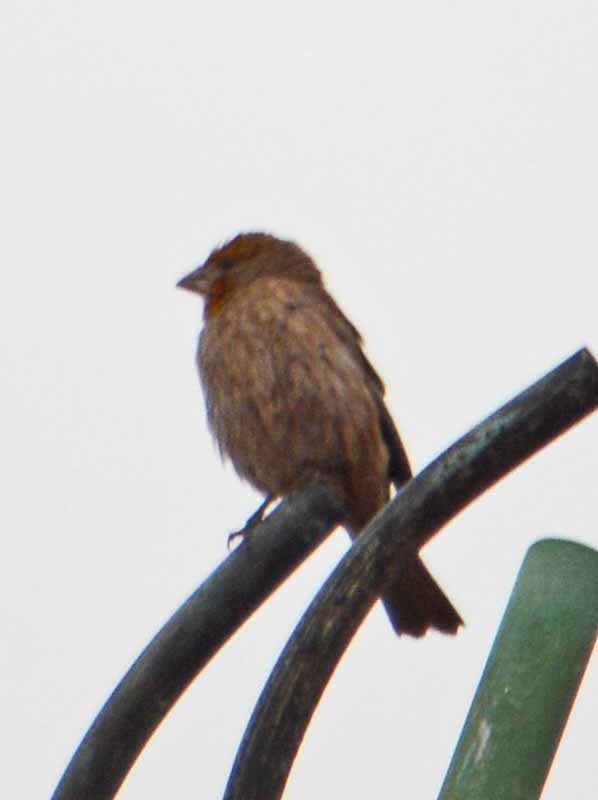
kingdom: Animalia
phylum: Chordata
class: Aves
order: Passeriformes
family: Fringillidae
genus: Haemorhous
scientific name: Haemorhous mexicanus
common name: House finch
